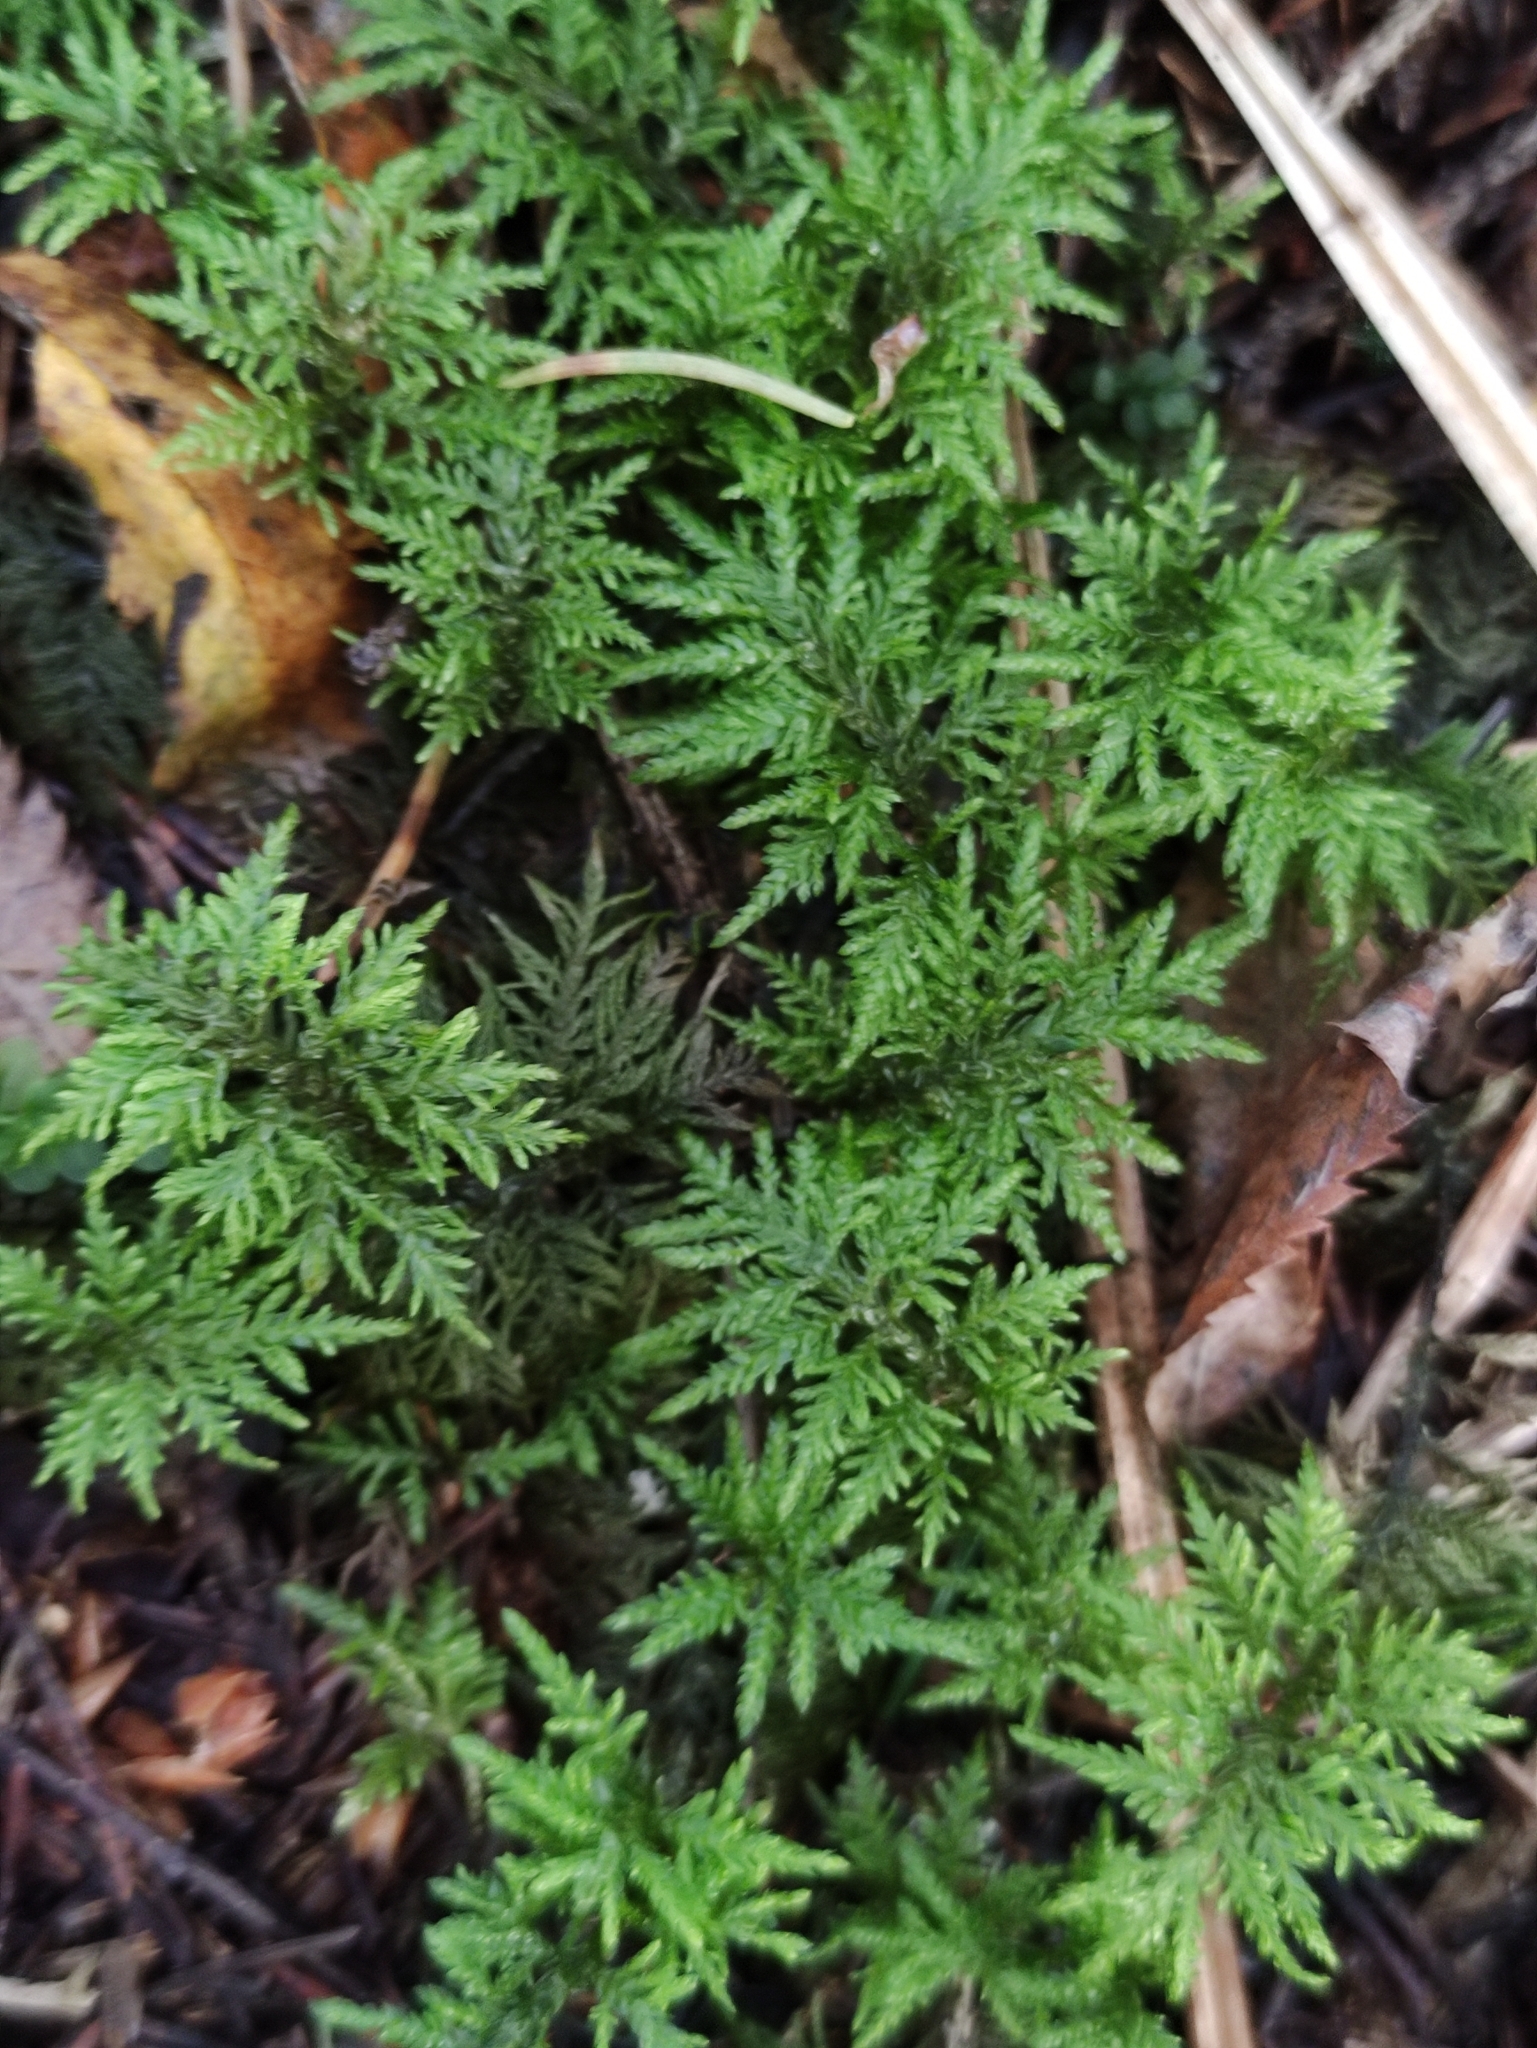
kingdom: Plantae
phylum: Bryophyta
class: Bryopsida
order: Hypnales
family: Hylocomiaceae
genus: Hylocomium
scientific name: Hylocomium splendens
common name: Stairstep moss
